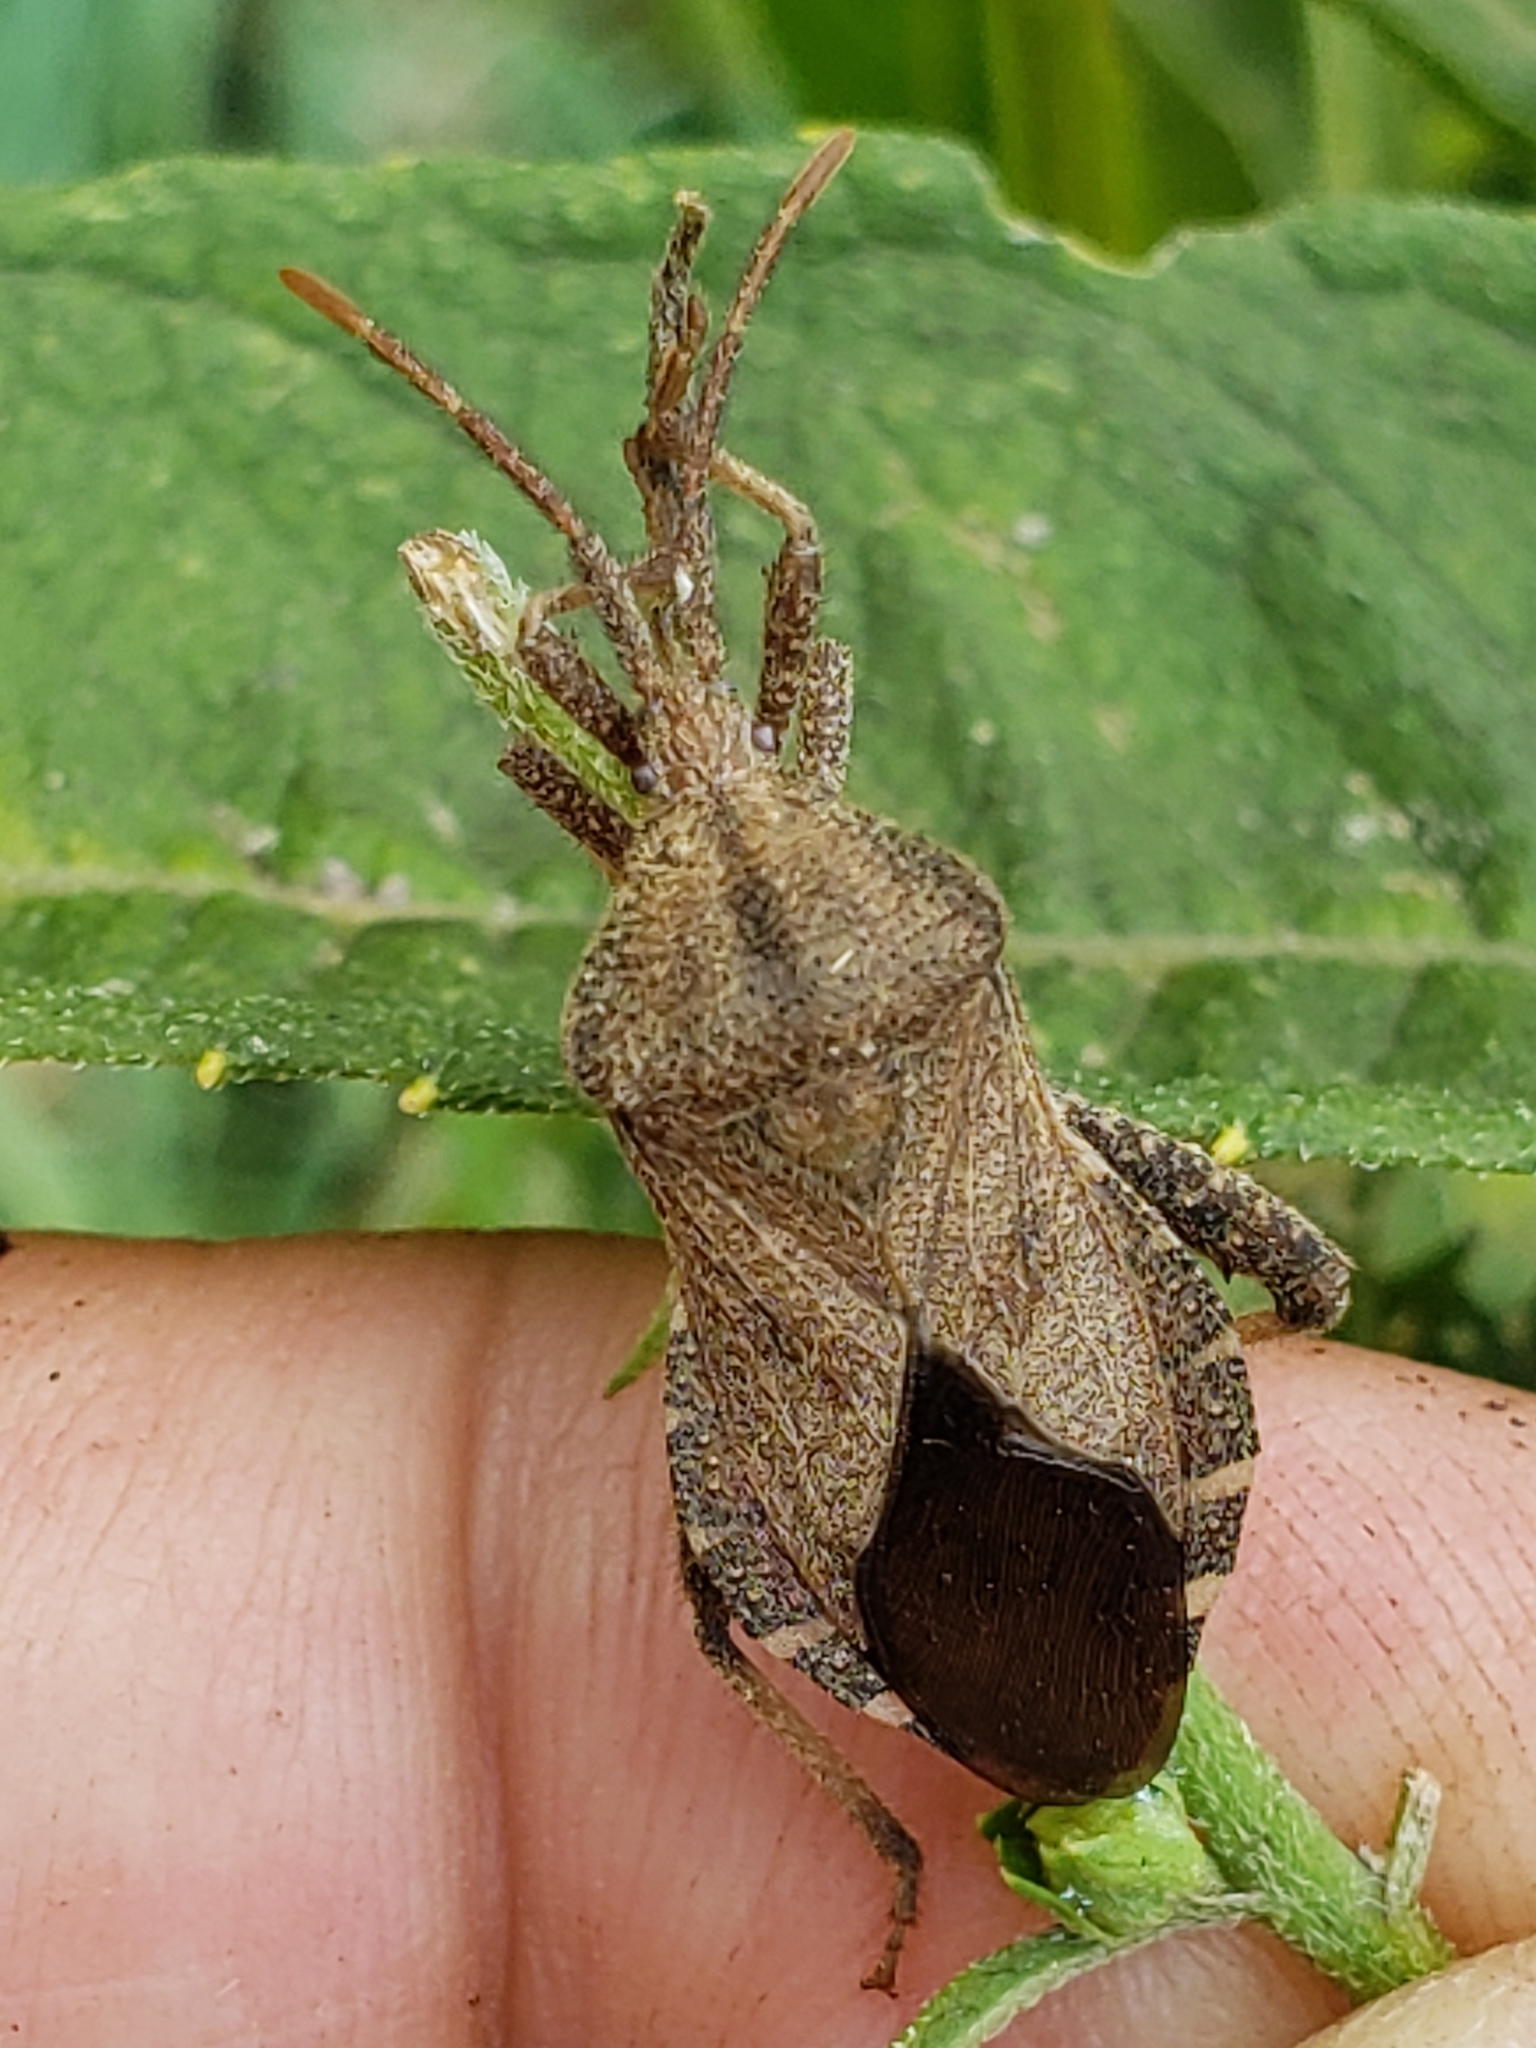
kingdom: Animalia
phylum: Arthropoda
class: Insecta
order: Hemiptera
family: Coreidae
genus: Piezogaster
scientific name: Piezogaster calcarator
